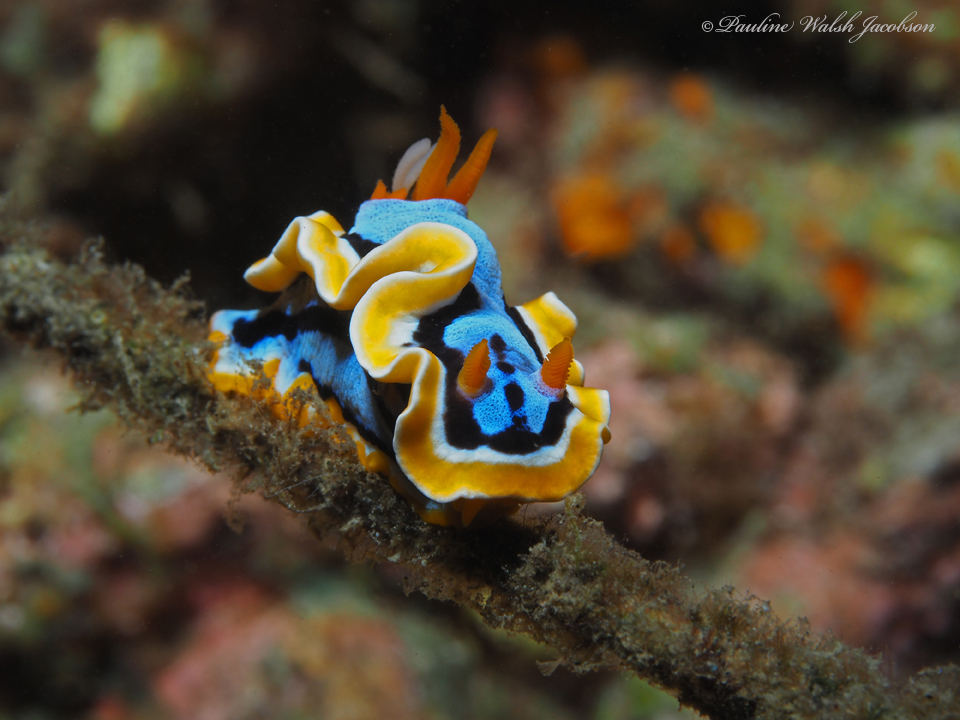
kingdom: Animalia
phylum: Mollusca
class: Gastropoda
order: Nudibranchia
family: Chromodorididae
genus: Chromodoris
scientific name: Chromodoris annae
